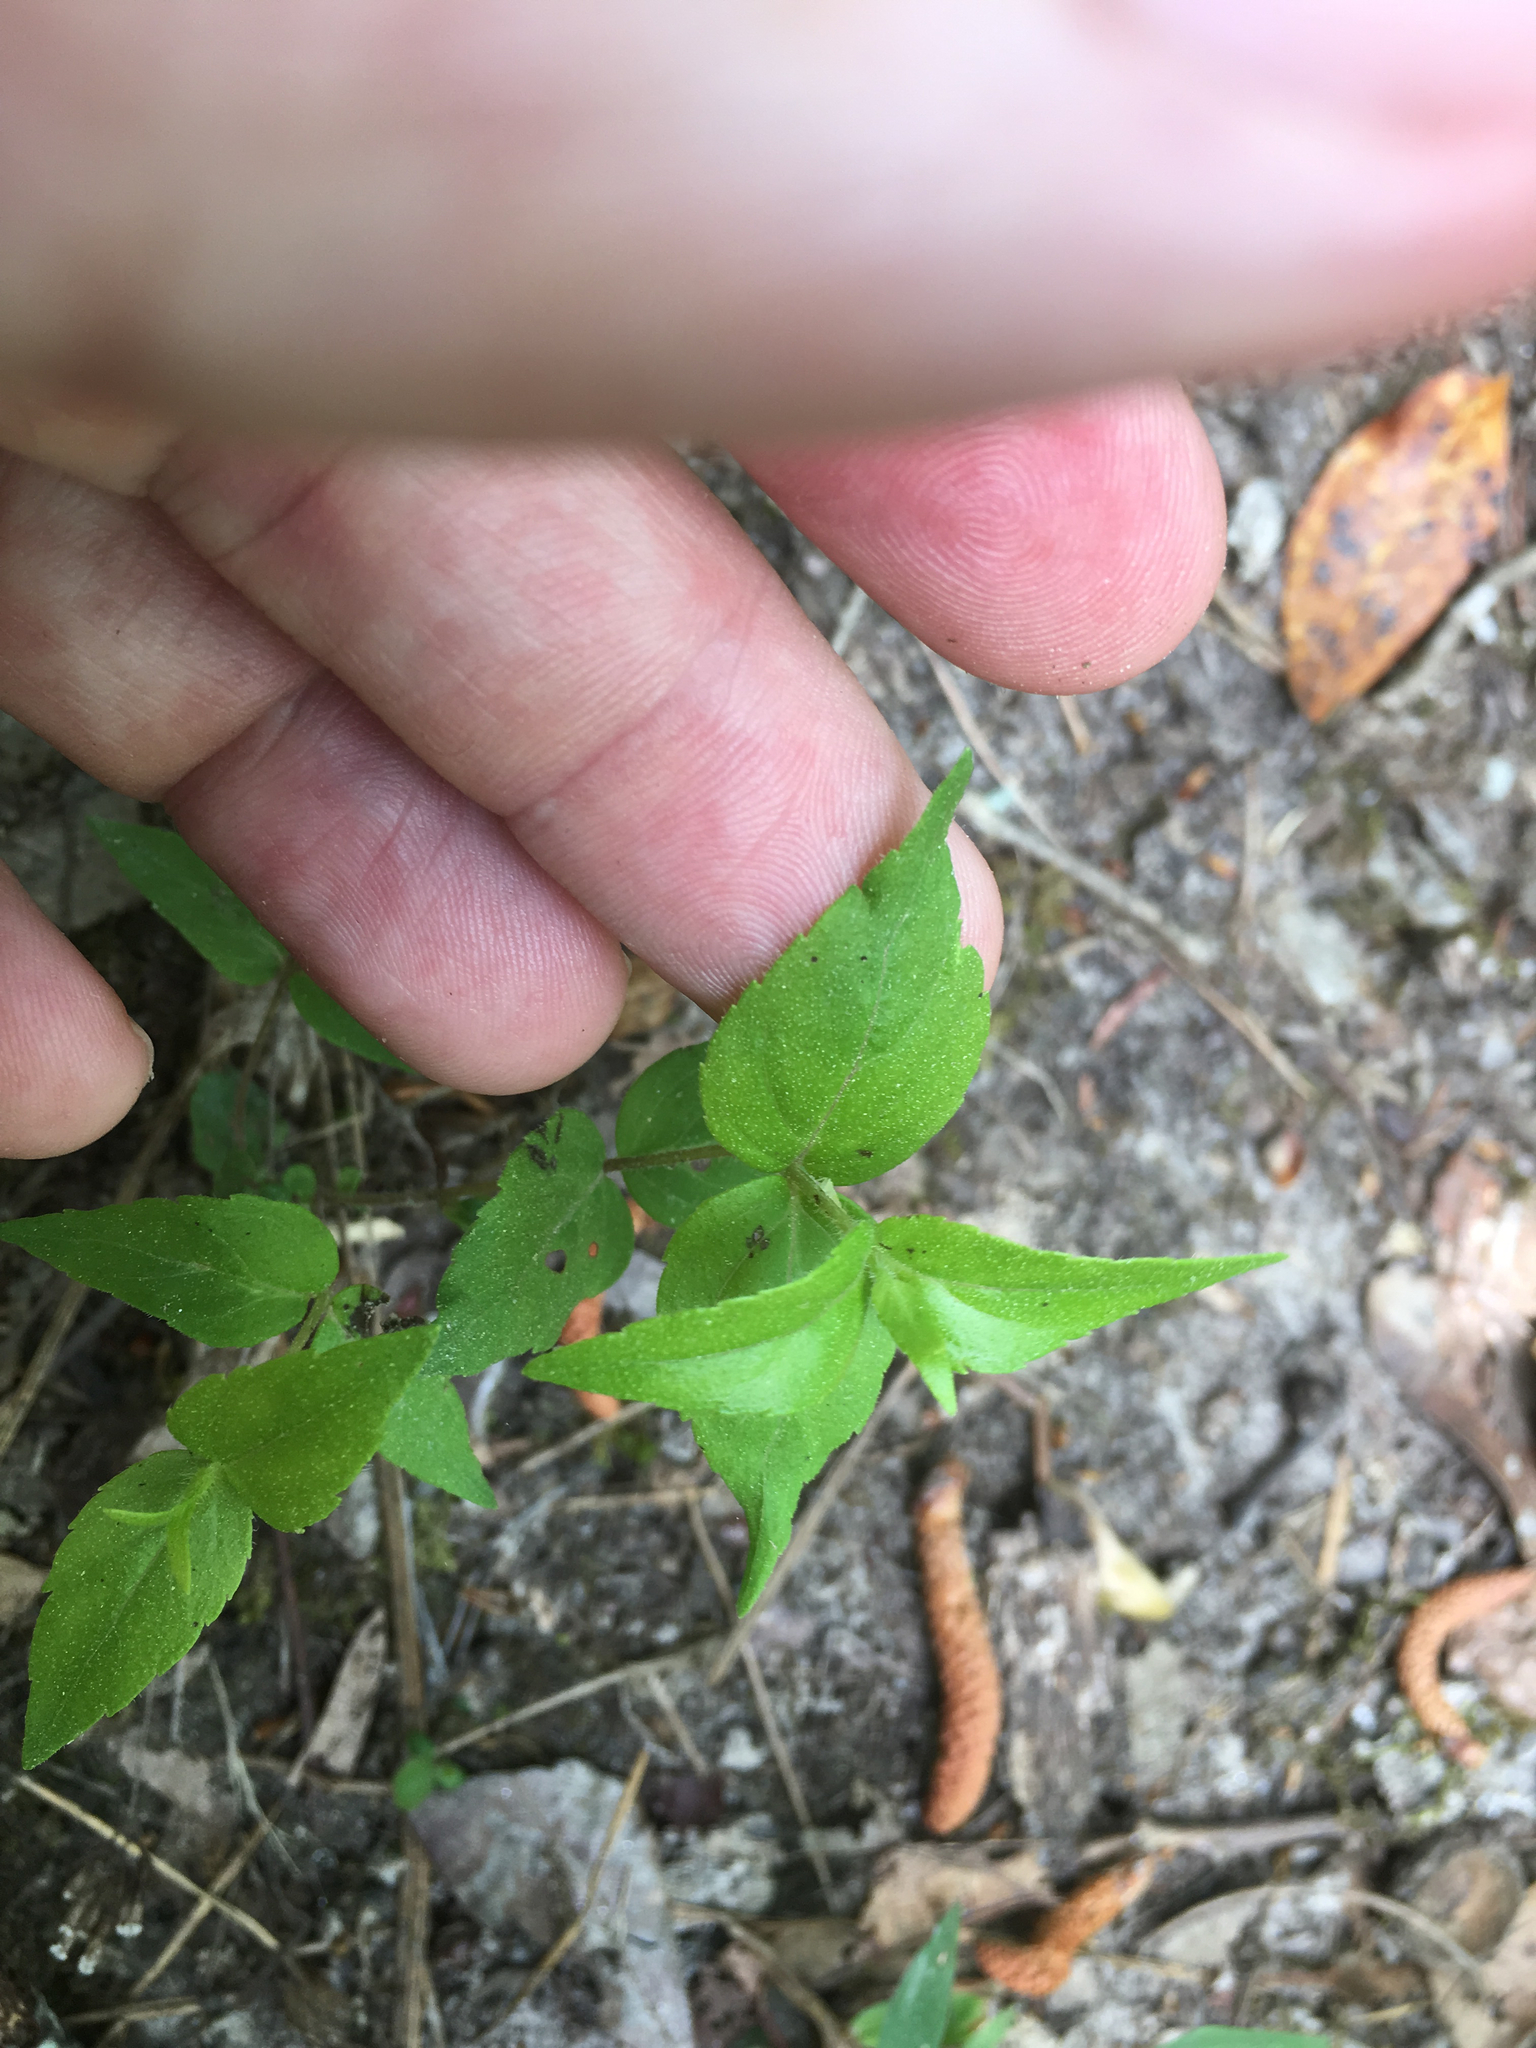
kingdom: Plantae
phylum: Tracheophyta
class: Magnoliopsida
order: Lamiales
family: Lamiaceae
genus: Cunila
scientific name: Cunila origanoides
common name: American dittany
